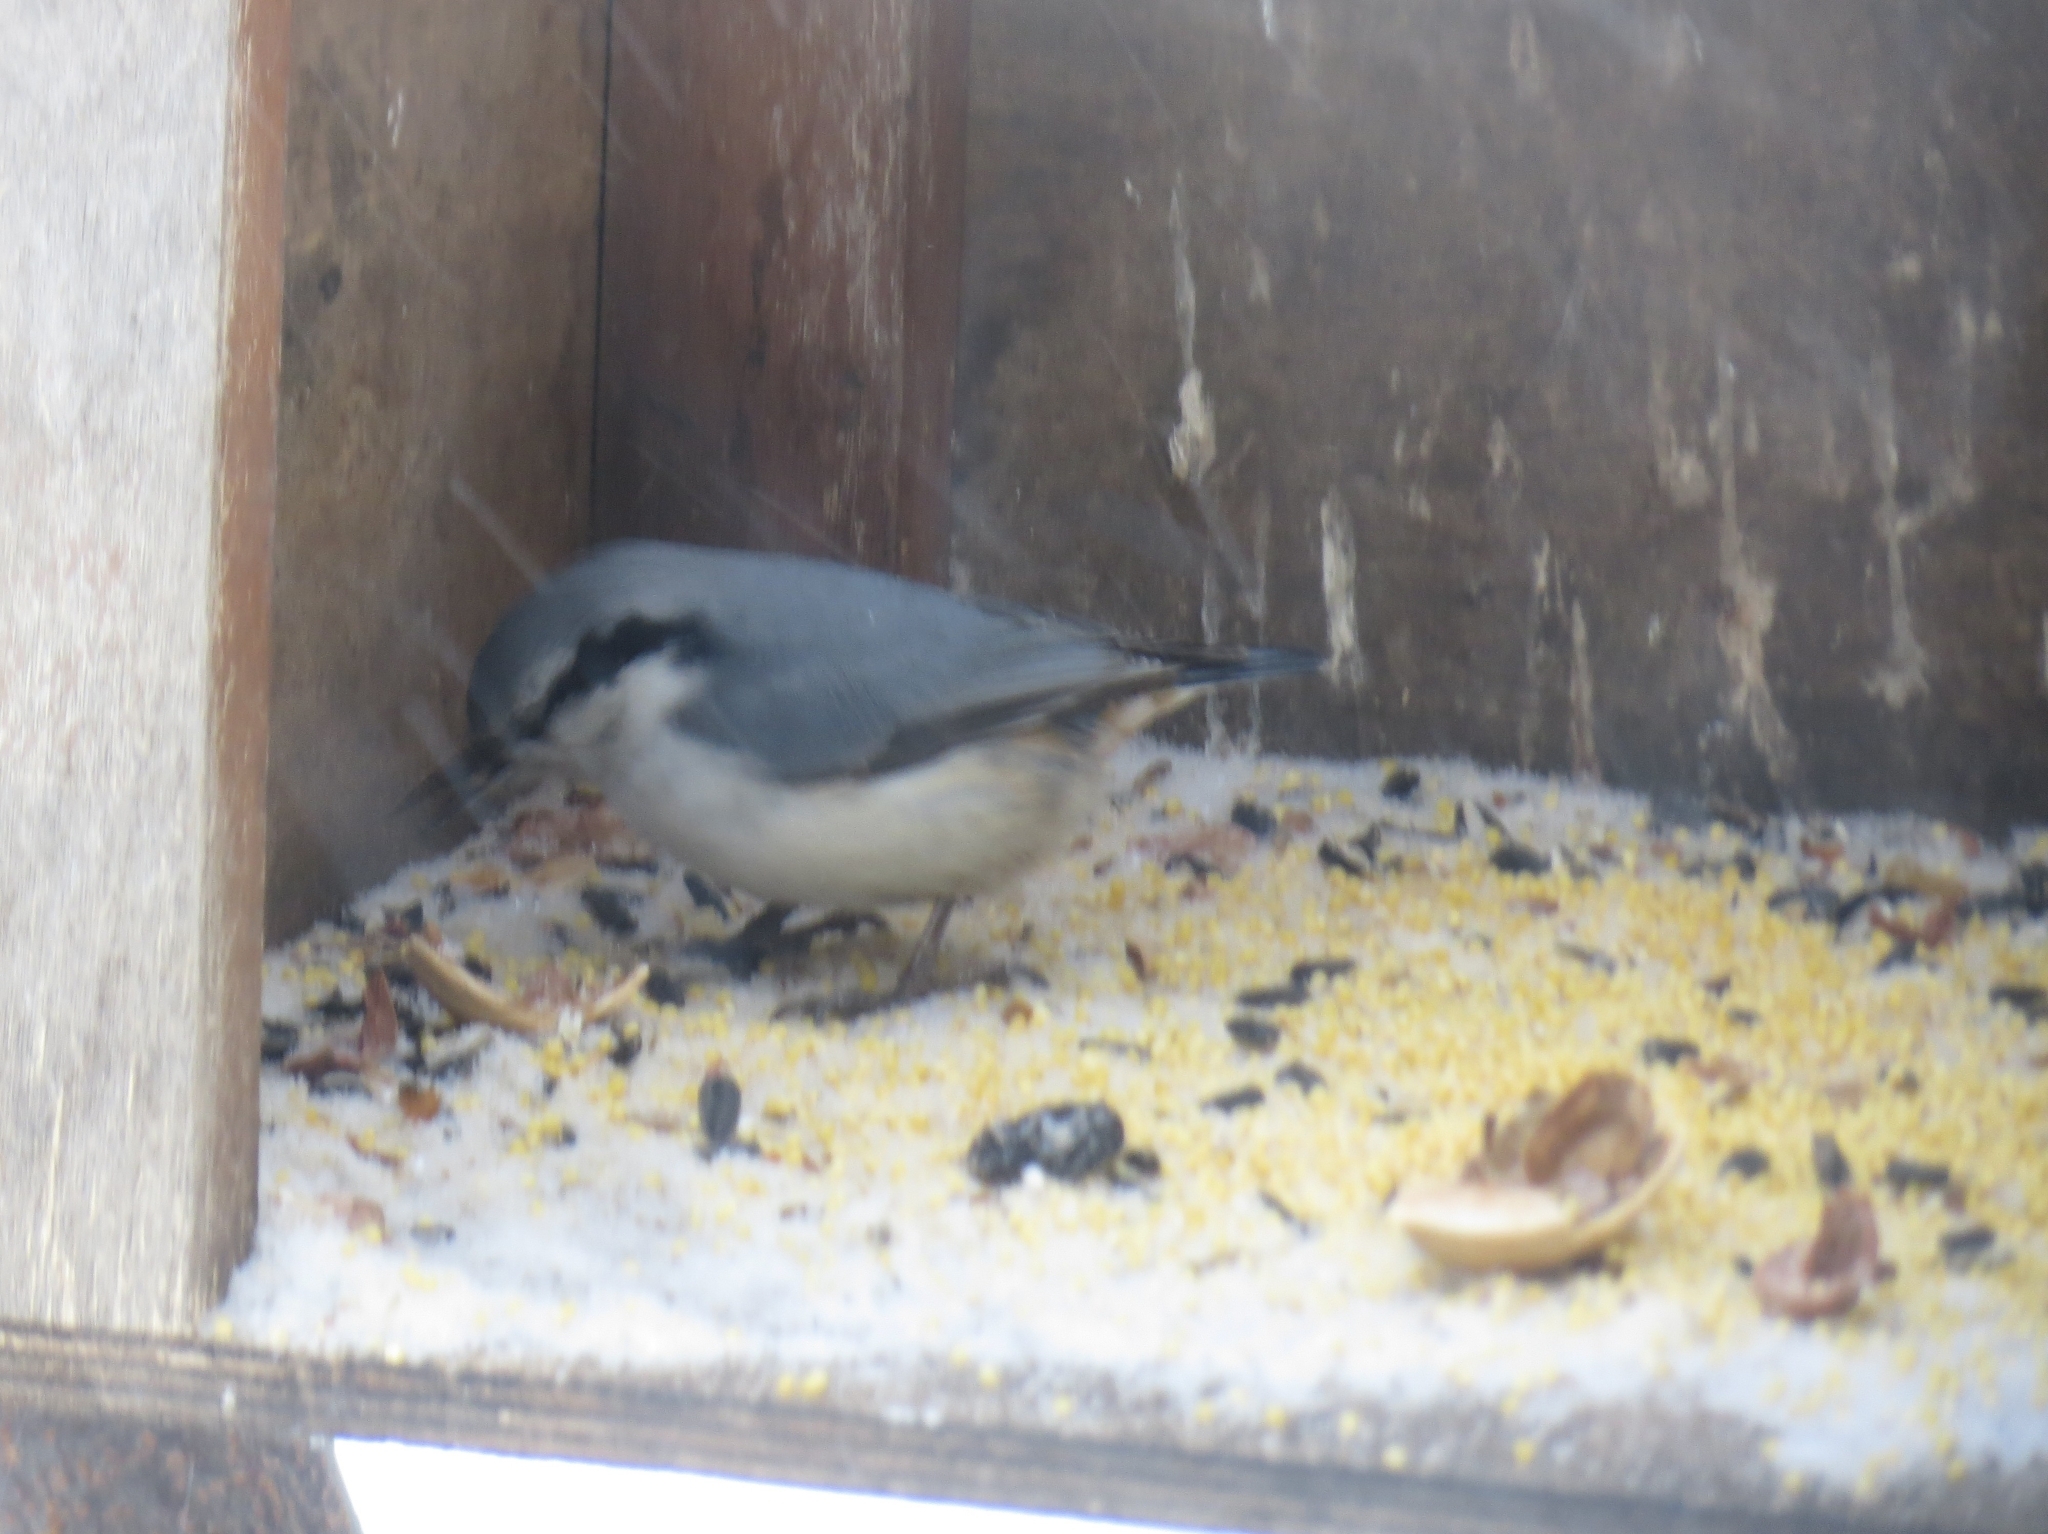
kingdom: Animalia
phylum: Chordata
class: Aves
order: Passeriformes
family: Sittidae
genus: Sitta
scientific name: Sitta europaea
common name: Eurasian nuthatch
